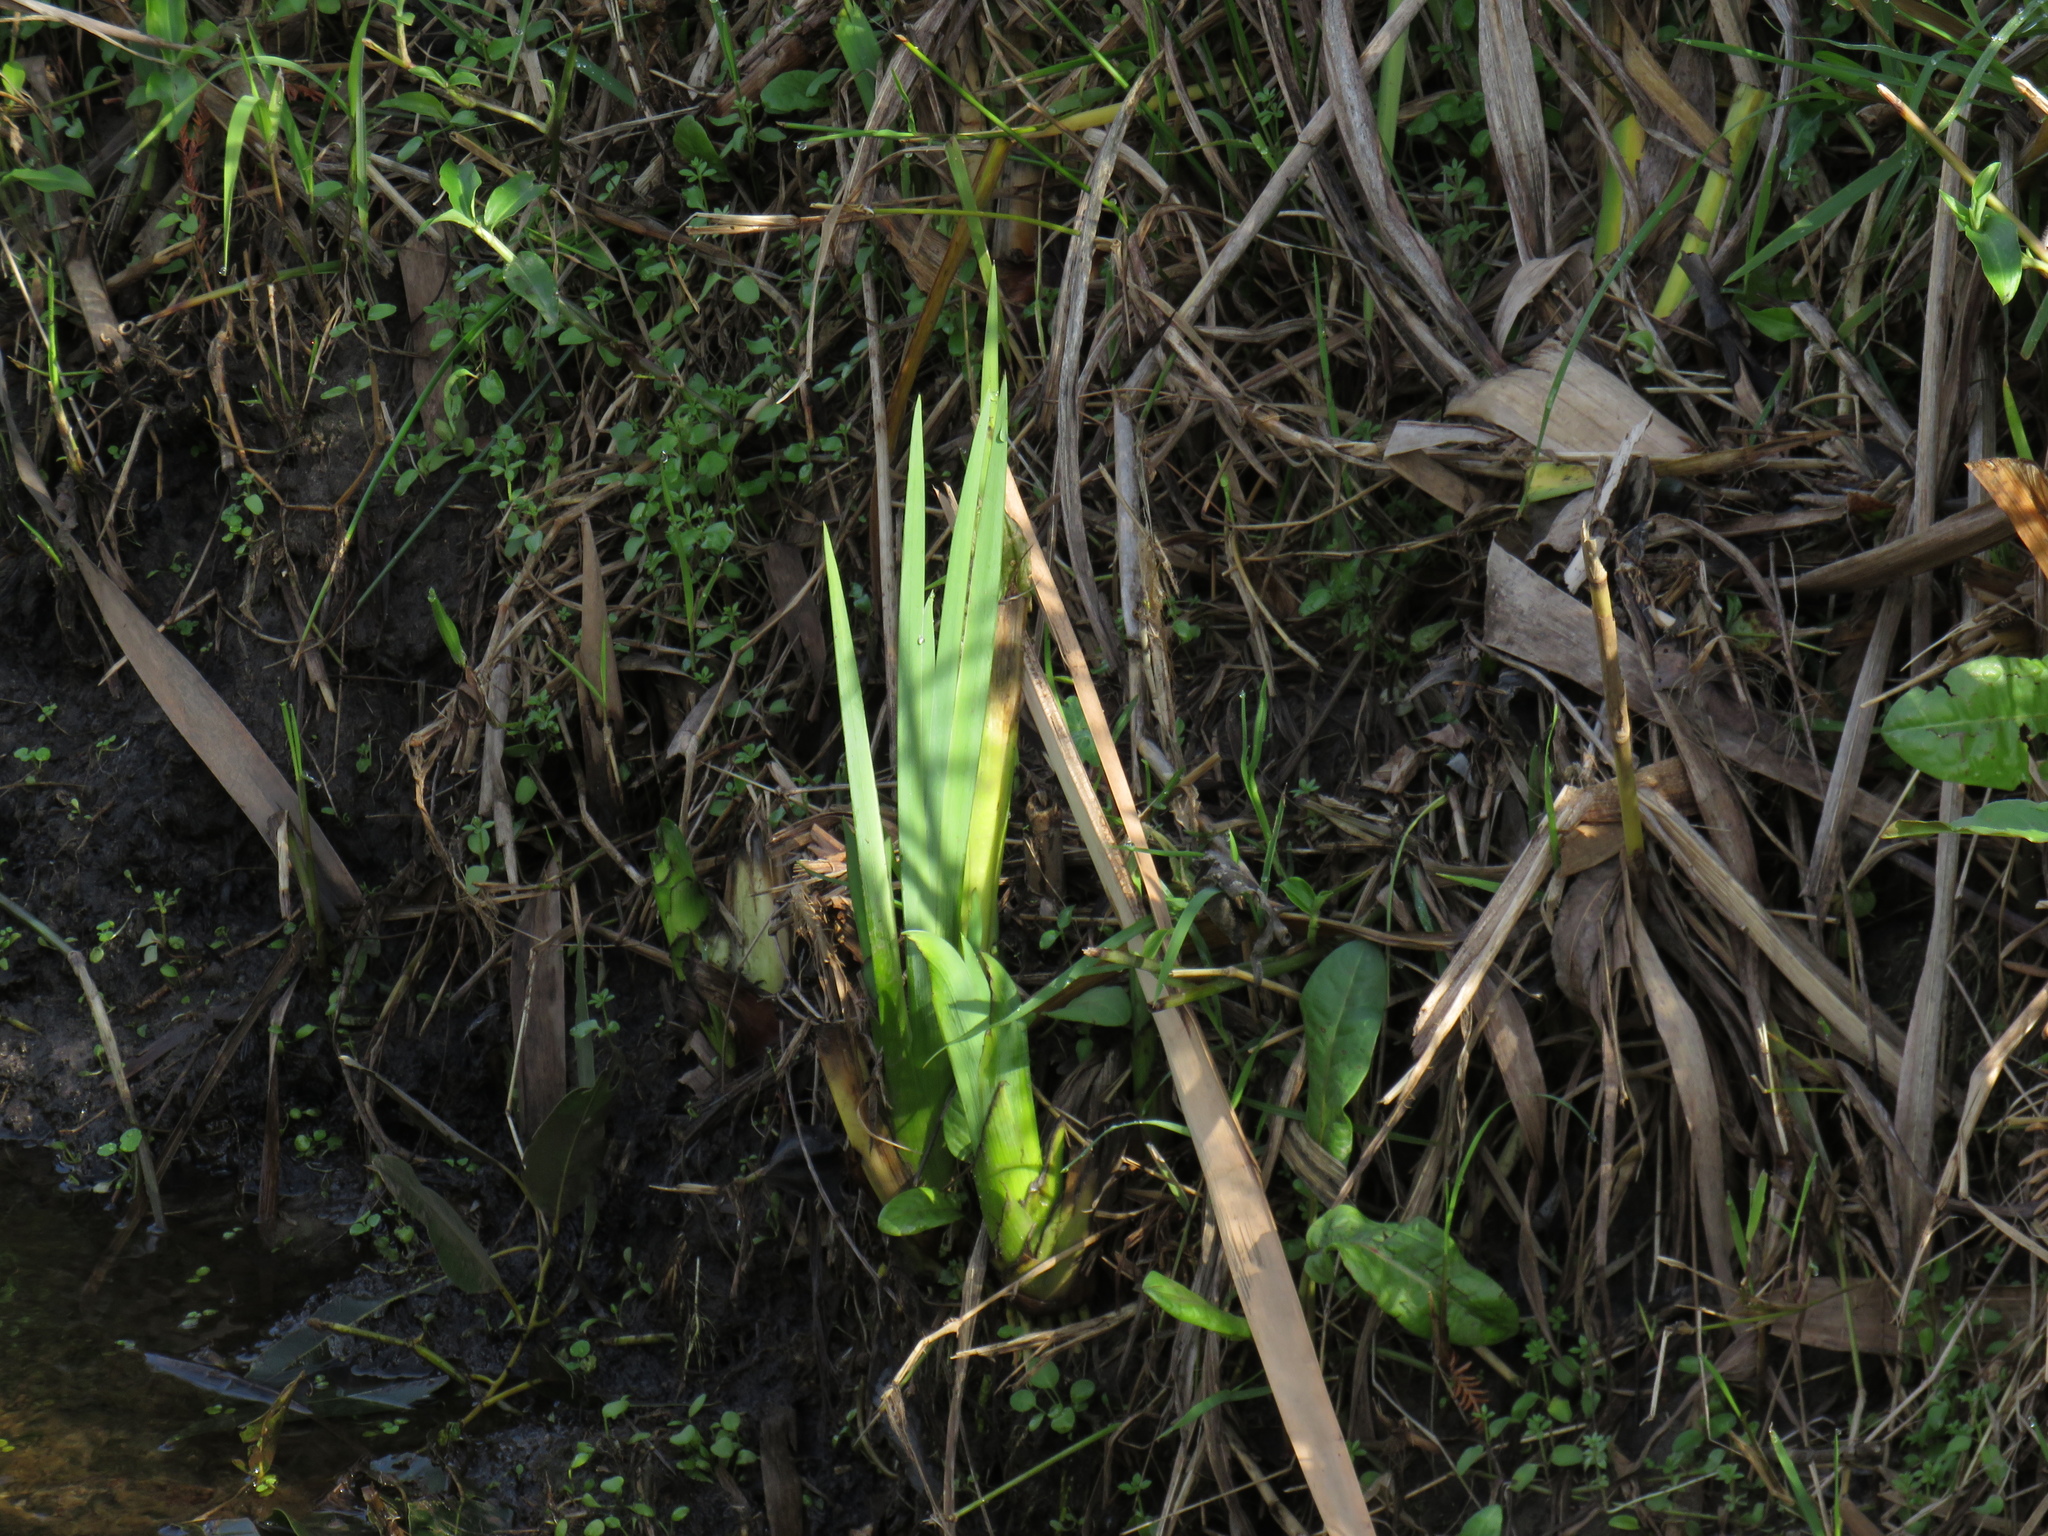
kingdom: Plantae
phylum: Tracheophyta
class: Liliopsida
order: Asparagales
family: Iridaceae
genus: Iris
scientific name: Iris pseudacorus
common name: Yellow flag
